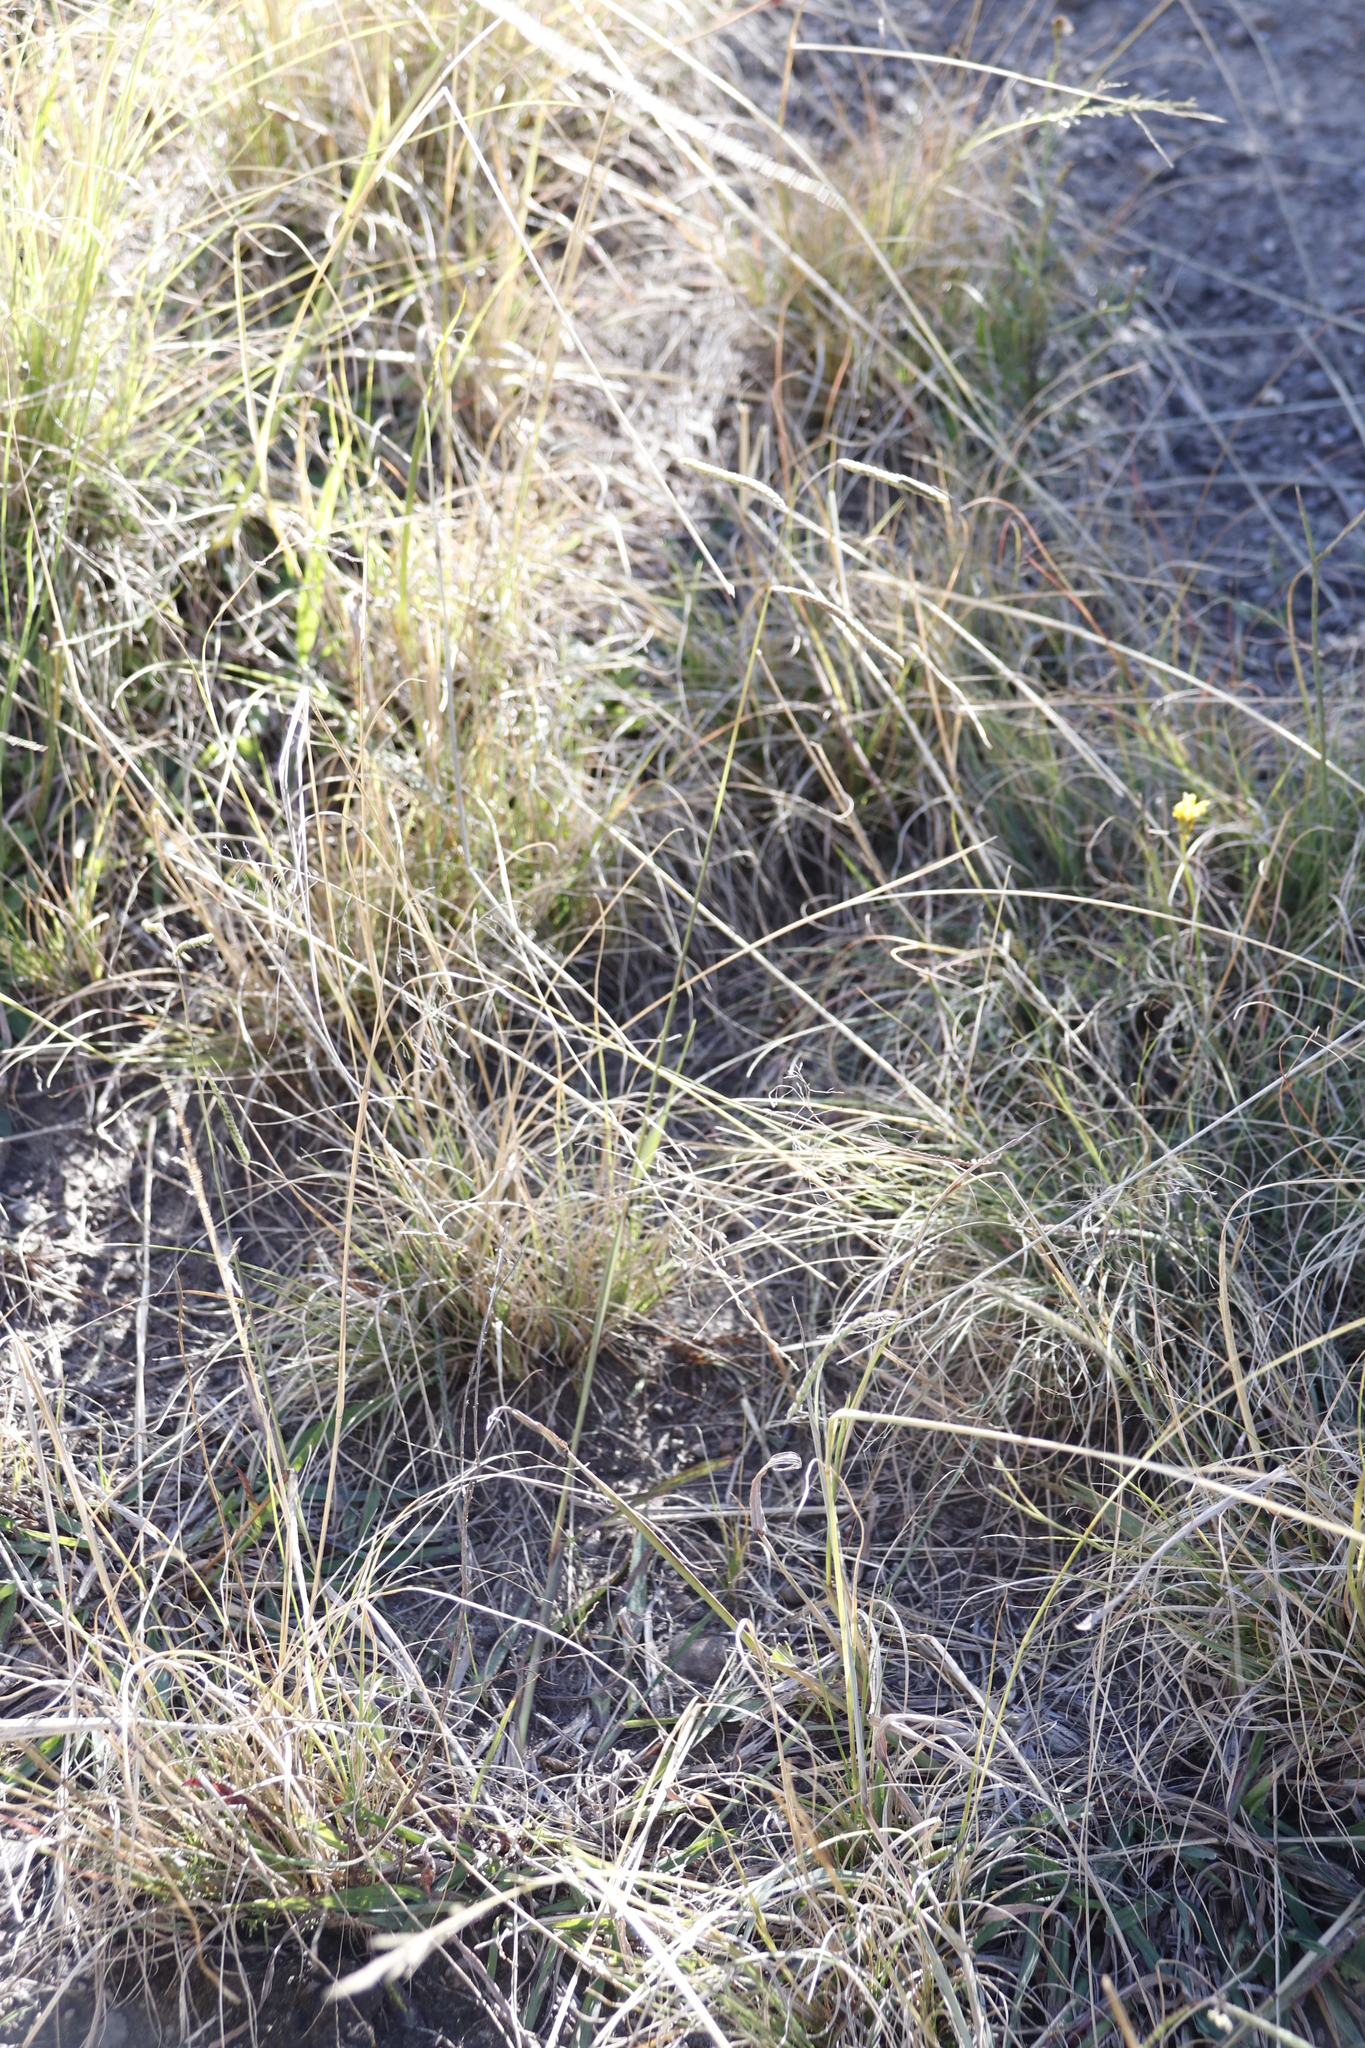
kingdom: Plantae
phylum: Tracheophyta
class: Liliopsida
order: Poales
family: Poaceae
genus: Paspalum
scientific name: Paspalum dilatatum
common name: Dallisgrass
